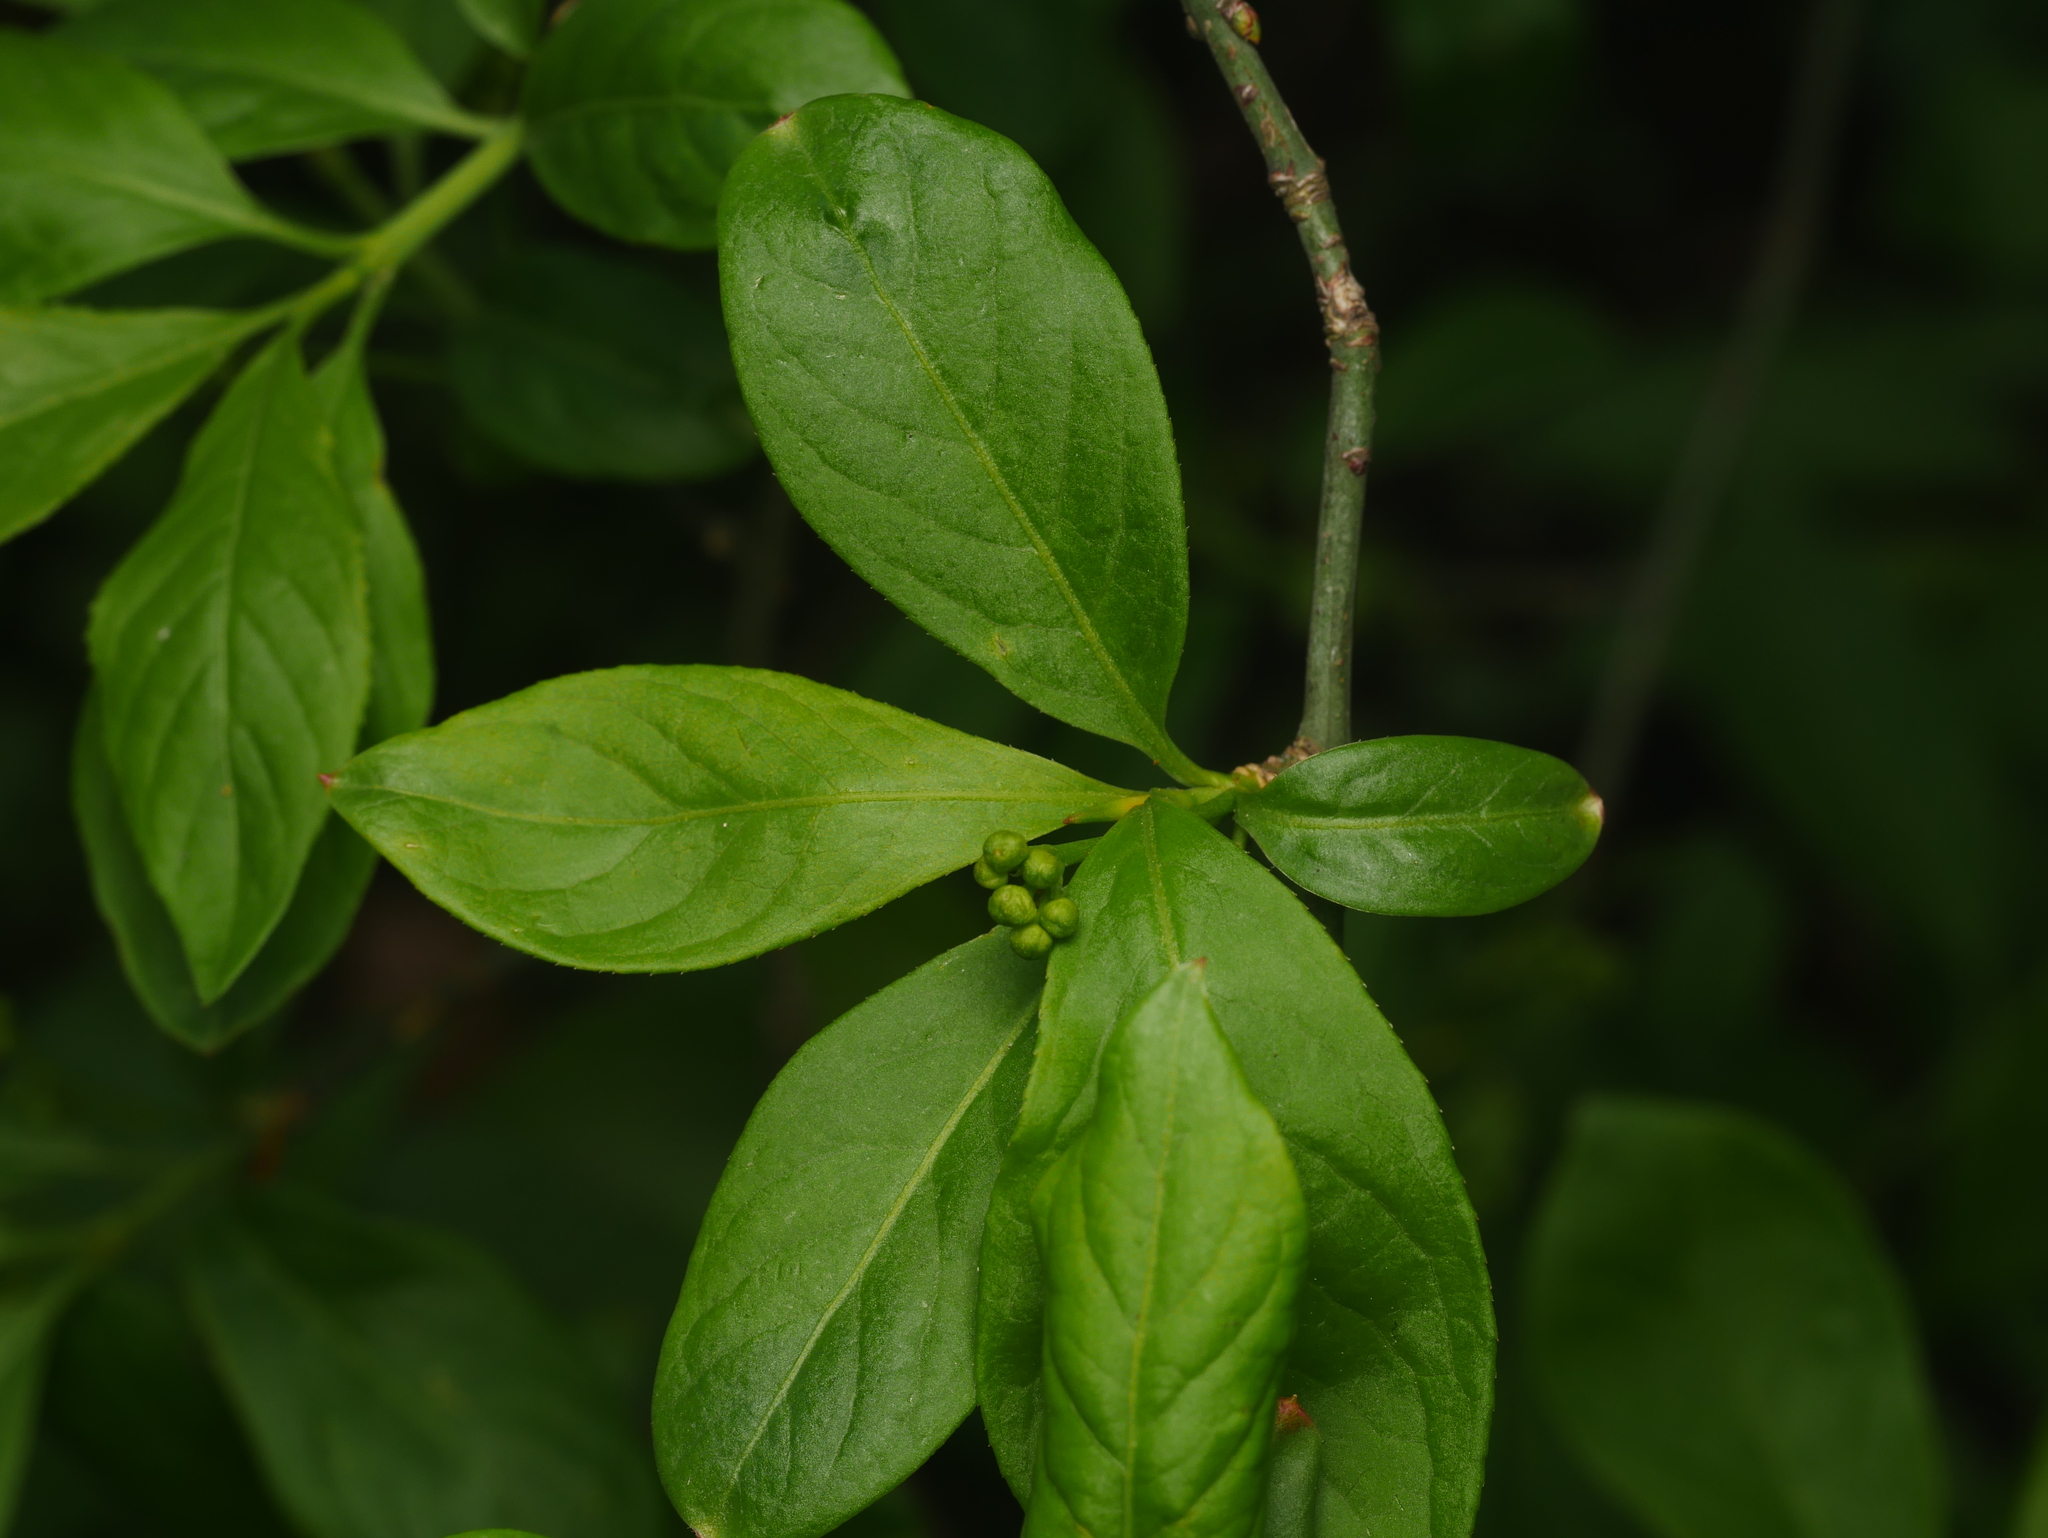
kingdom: Plantae
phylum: Tracheophyta
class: Magnoliopsida
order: Celastrales
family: Celastraceae
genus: Euonymus
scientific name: Euonymus europaeus
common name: Spindle
